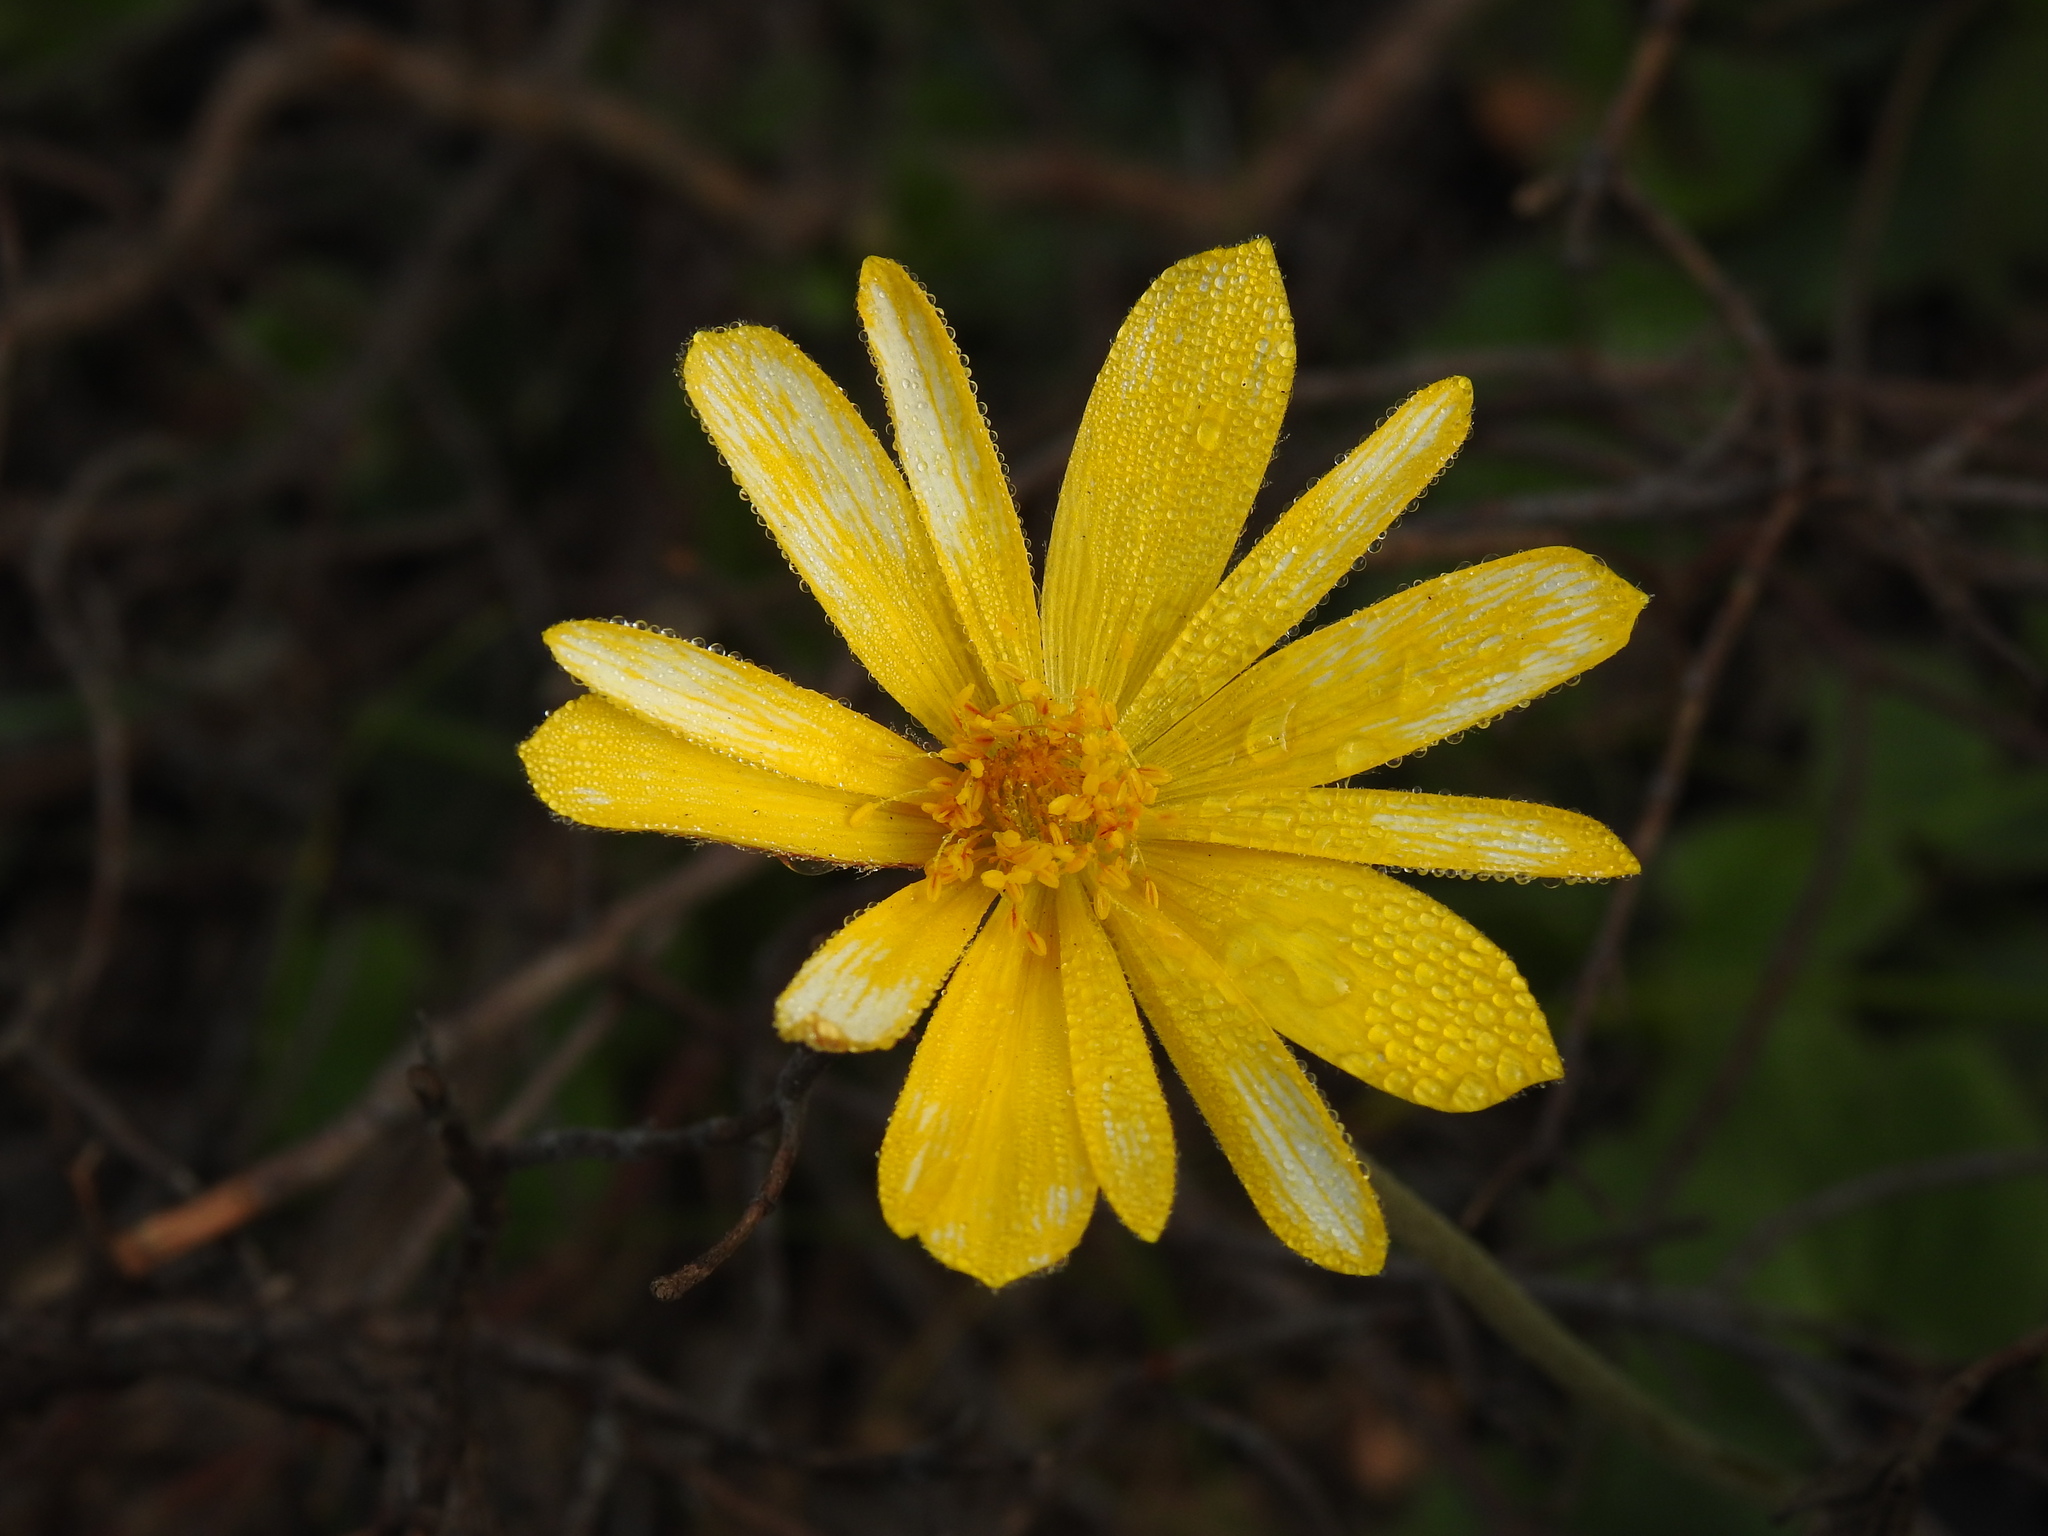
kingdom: Plantae
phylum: Tracheophyta
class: Magnoliopsida
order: Ranunculales
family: Ranunculaceae
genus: Anemone
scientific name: Anemone palmata
